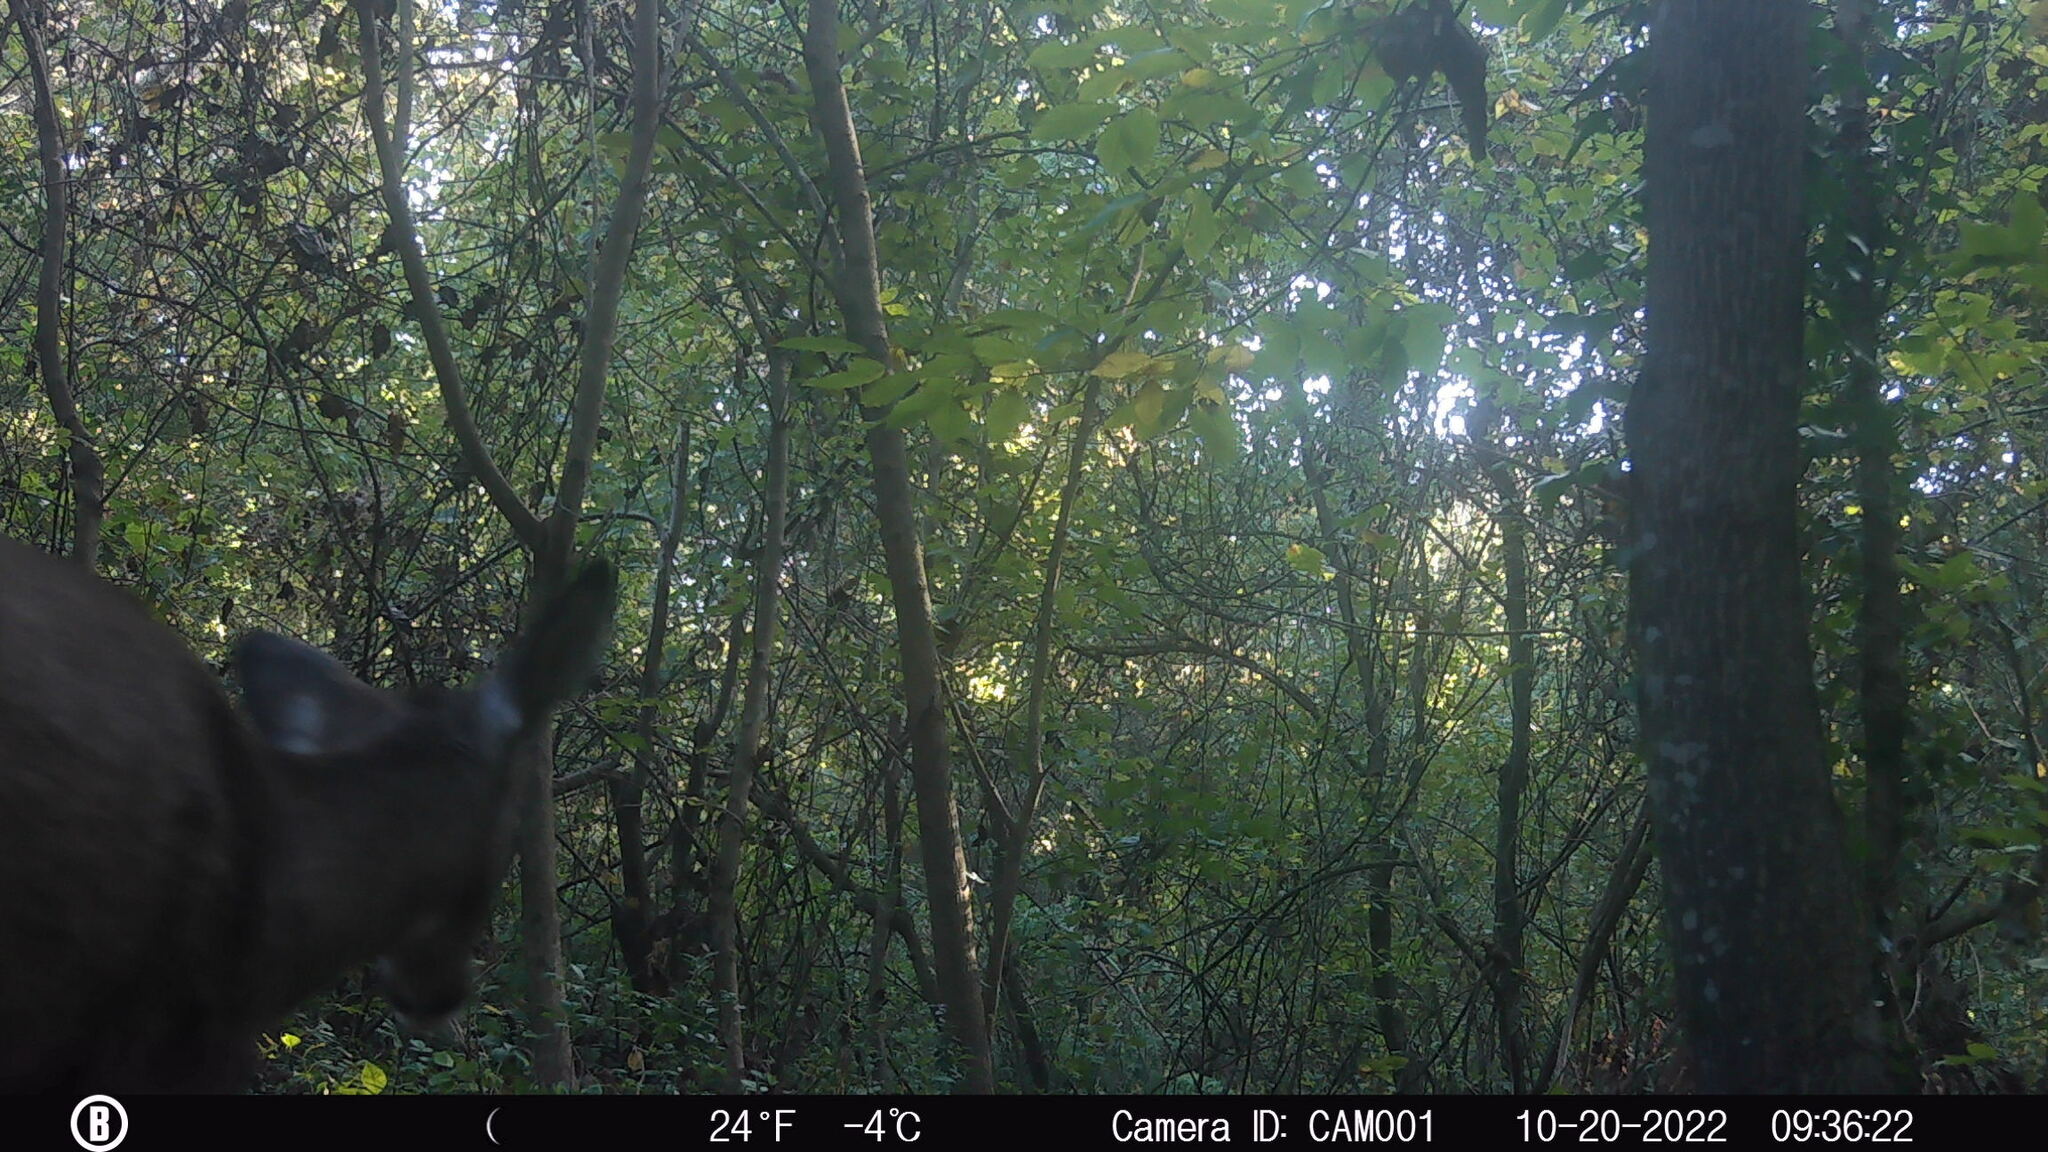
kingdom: Animalia
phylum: Chordata
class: Mammalia
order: Artiodactyla
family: Cervidae
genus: Odocoileus
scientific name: Odocoileus virginianus
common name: White-tailed deer
